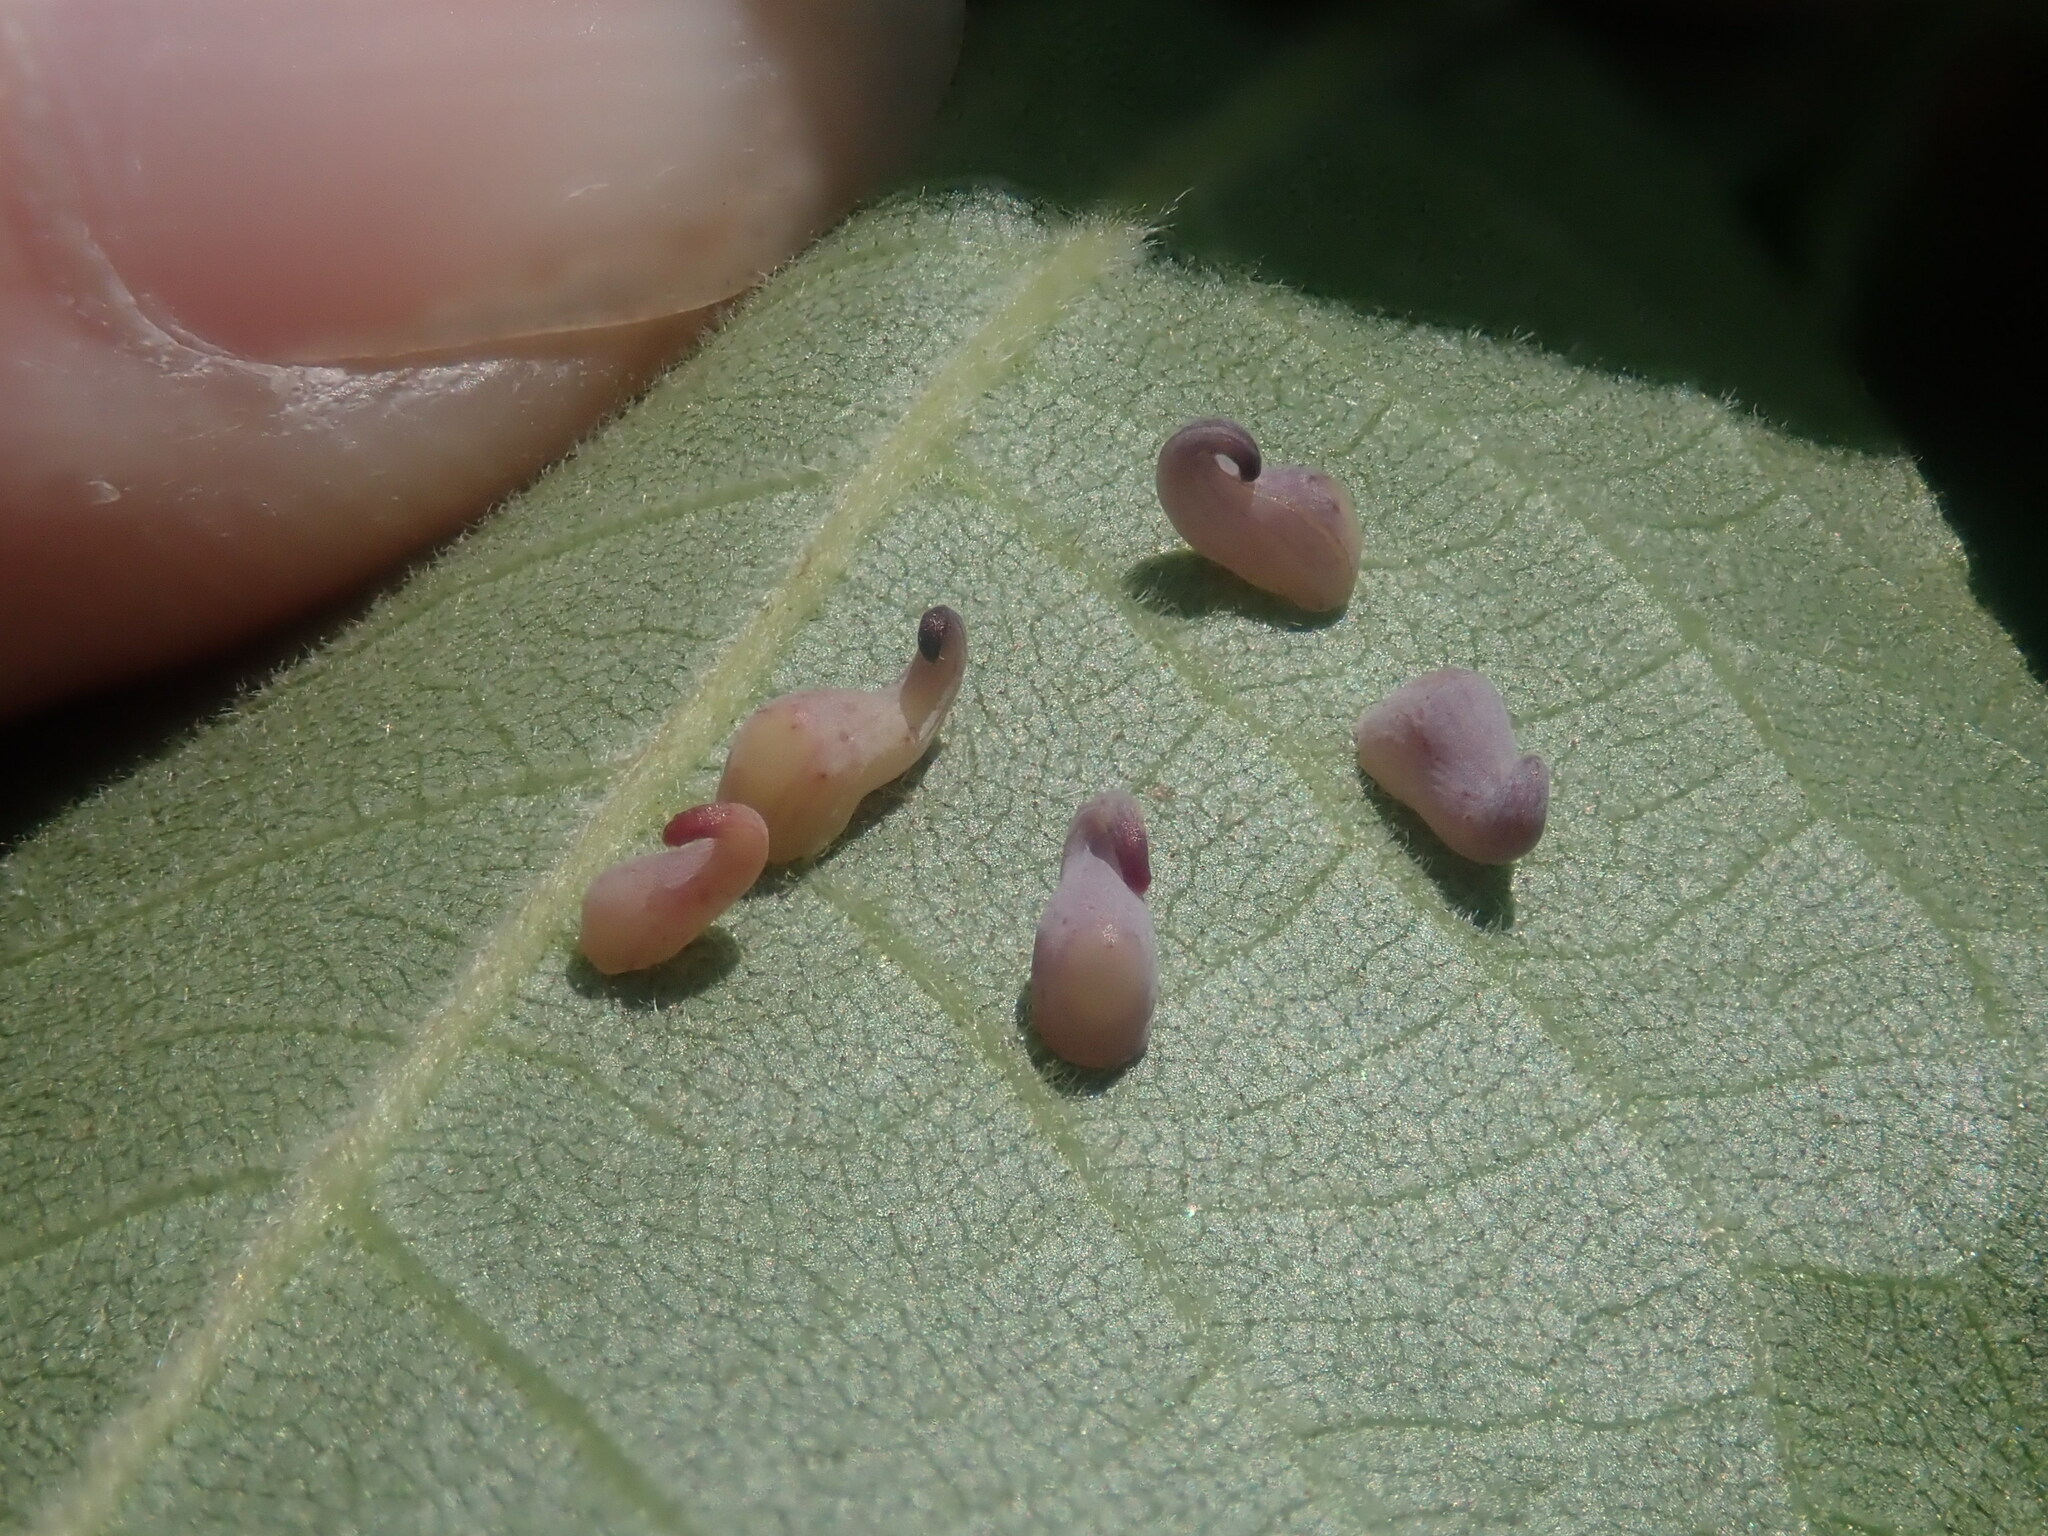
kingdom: Animalia
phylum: Arthropoda
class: Insecta
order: Diptera
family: Cecidomyiidae
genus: Caryomyia
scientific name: Caryomyia recurvata
